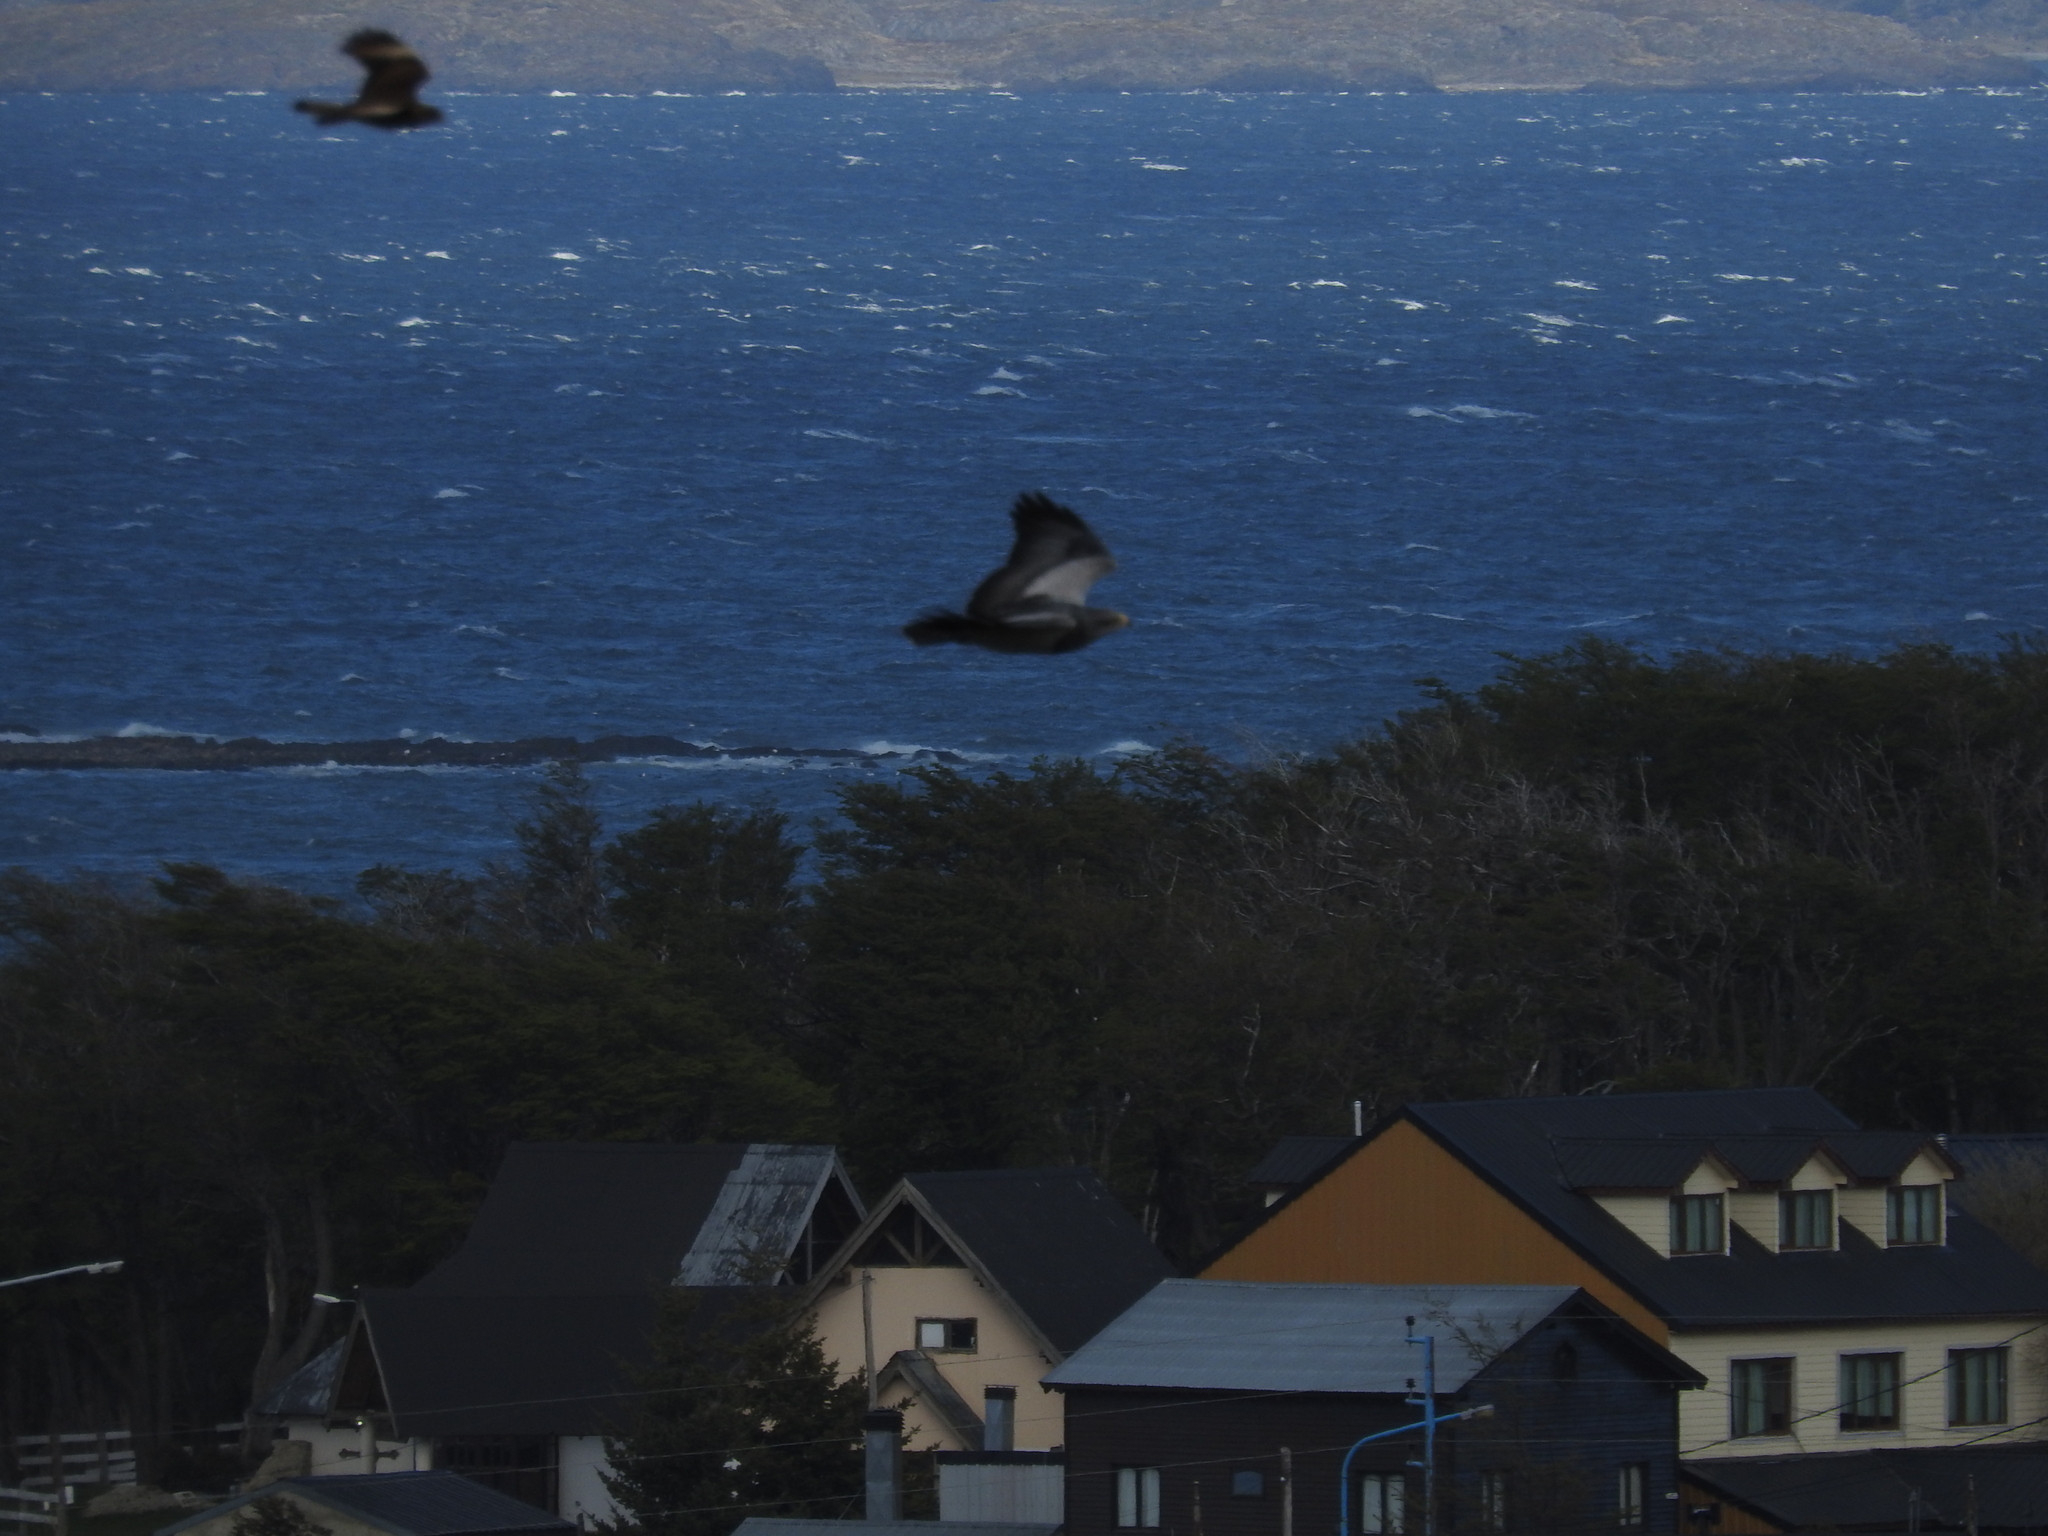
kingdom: Animalia
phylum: Chordata
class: Aves
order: Accipitriformes
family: Accipitridae
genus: Geranoaetus
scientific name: Geranoaetus melanoleucus
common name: Black-chested buzzard-eagle
